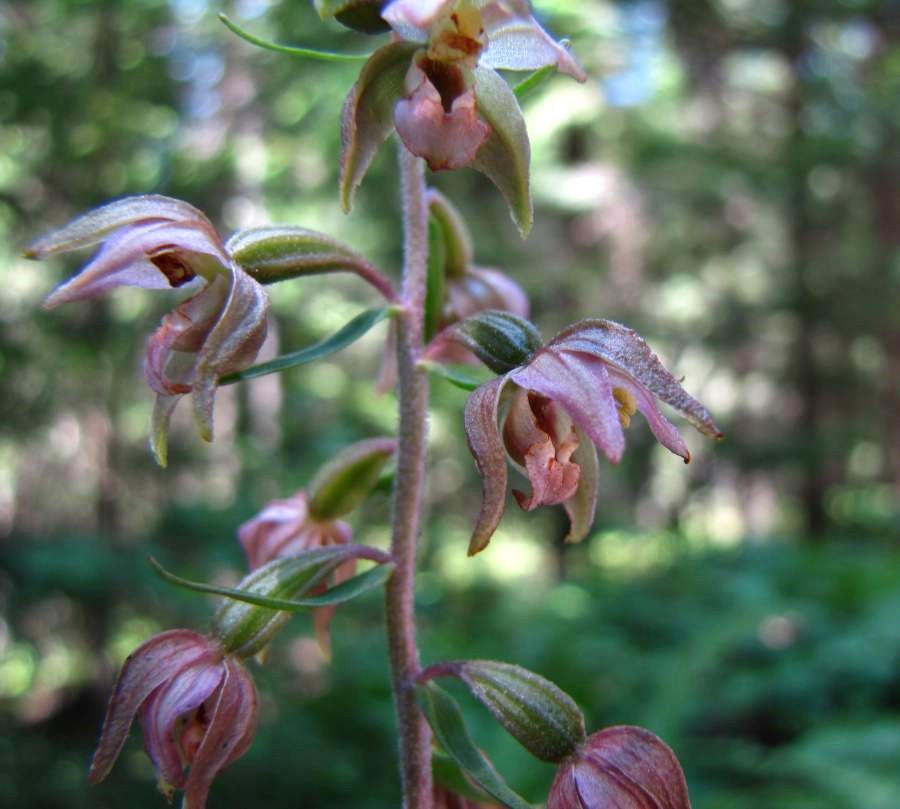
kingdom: Plantae
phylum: Tracheophyta
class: Liliopsida
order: Asparagales
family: Orchidaceae
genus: Epipactis
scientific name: Epipactis helleborine
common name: Broad-leaved helleborine
